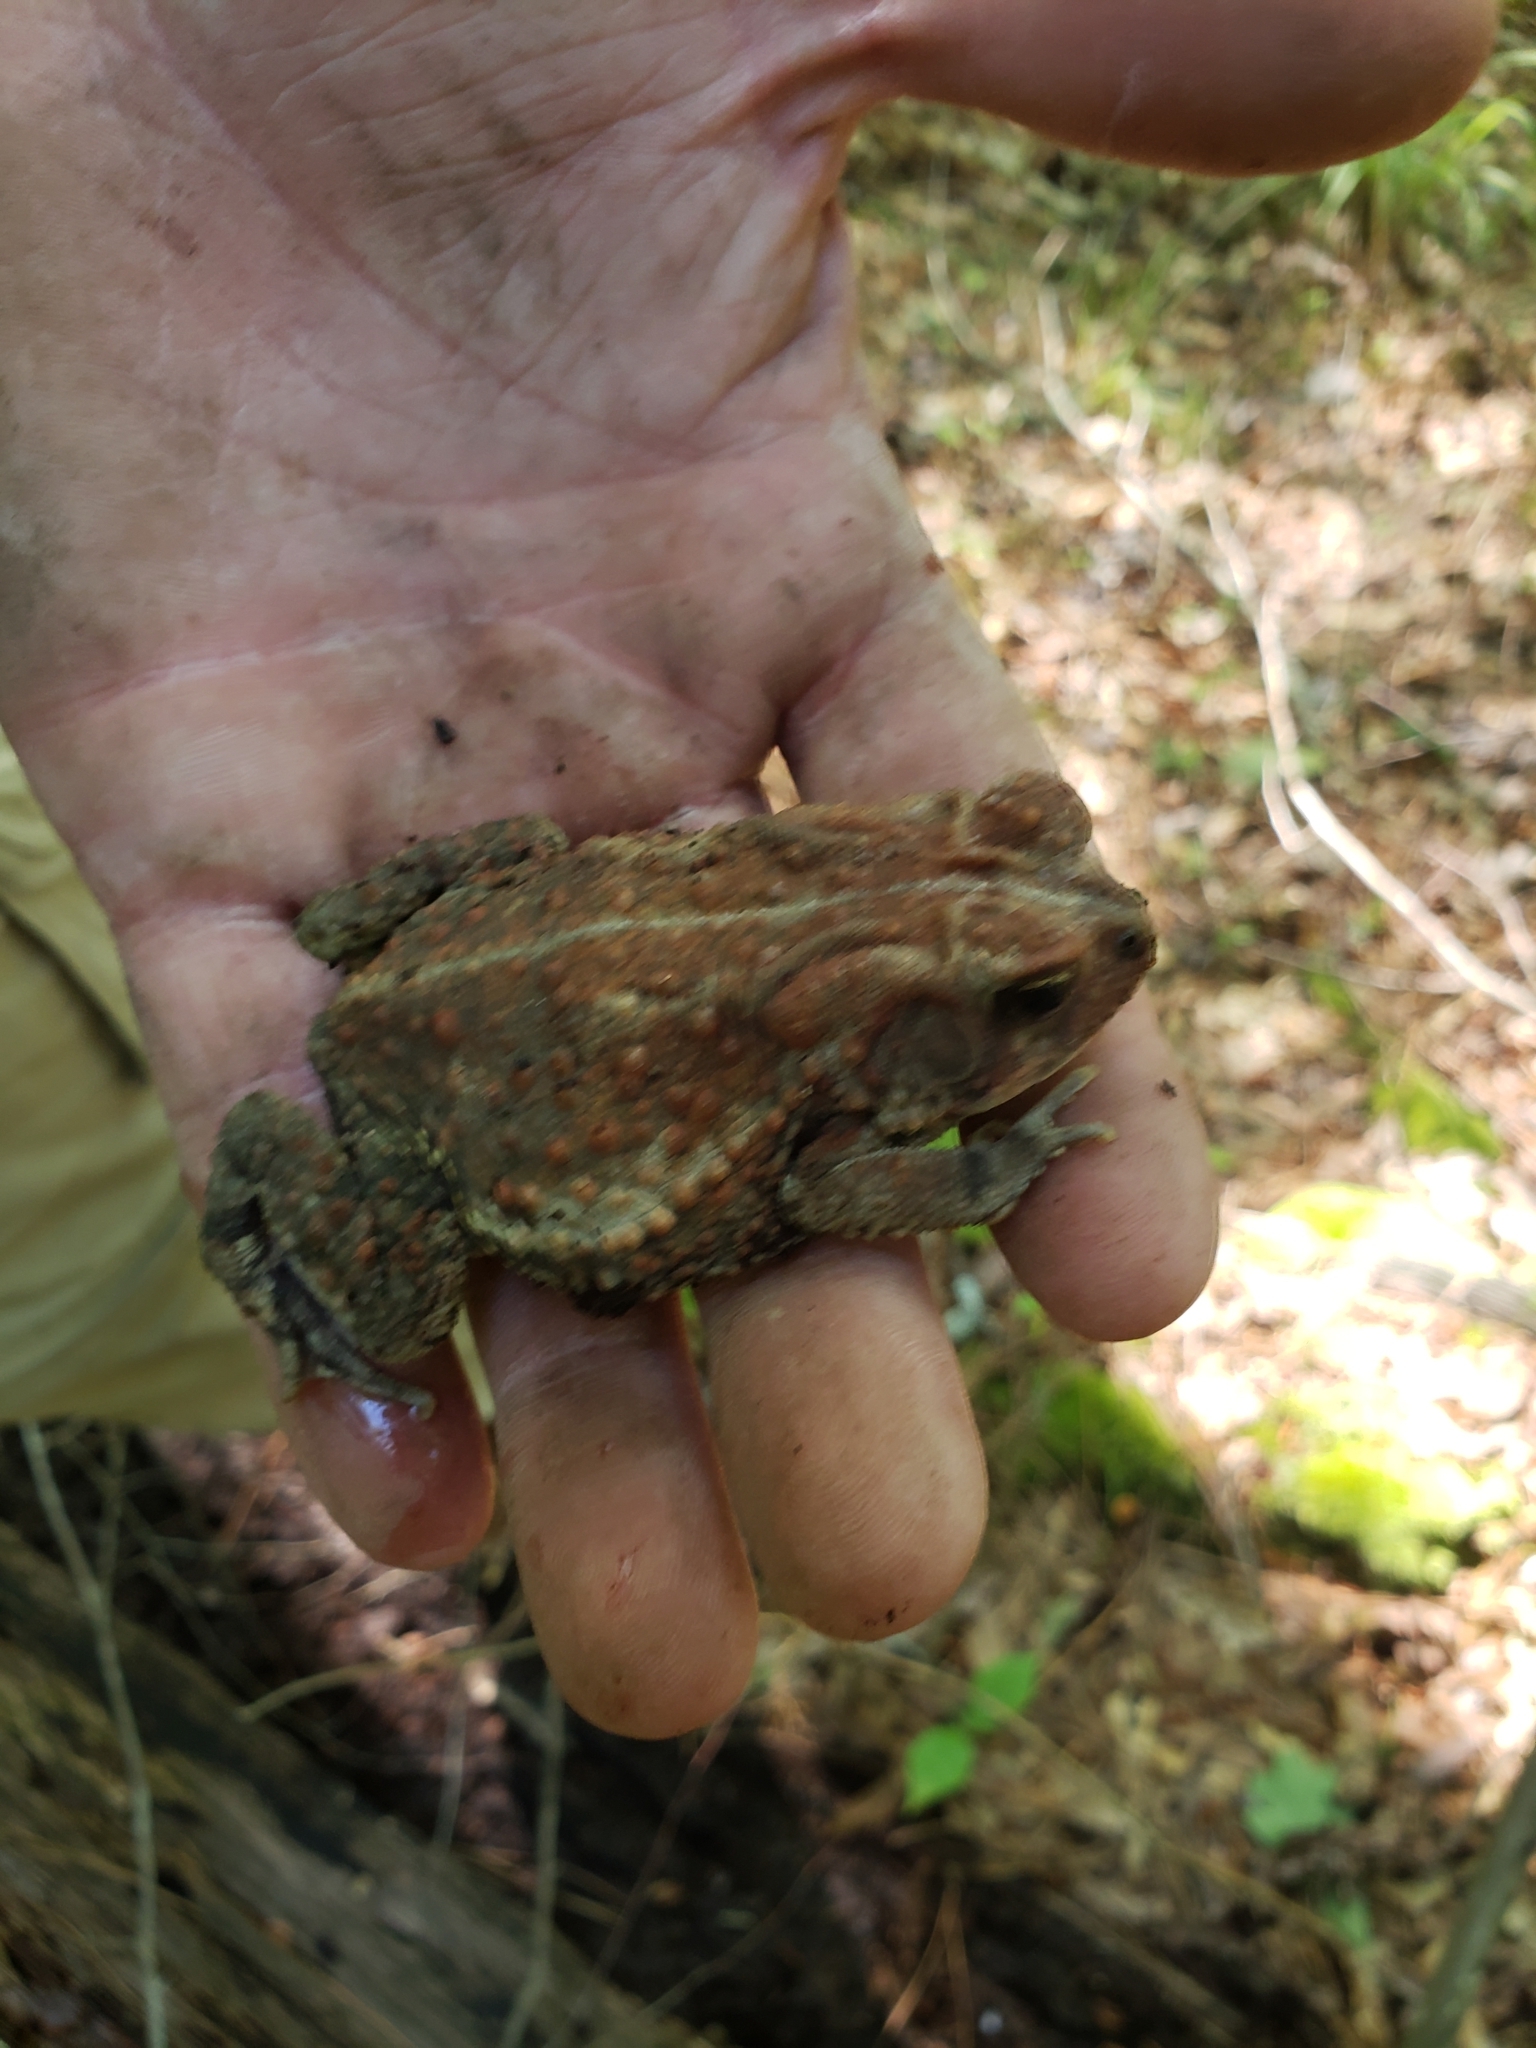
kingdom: Animalia
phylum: Chordata
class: Amphibia
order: Anura
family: Bufonidae
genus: Anaxyrus
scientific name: Anaxyrus fowleri
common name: Fowler's toad
